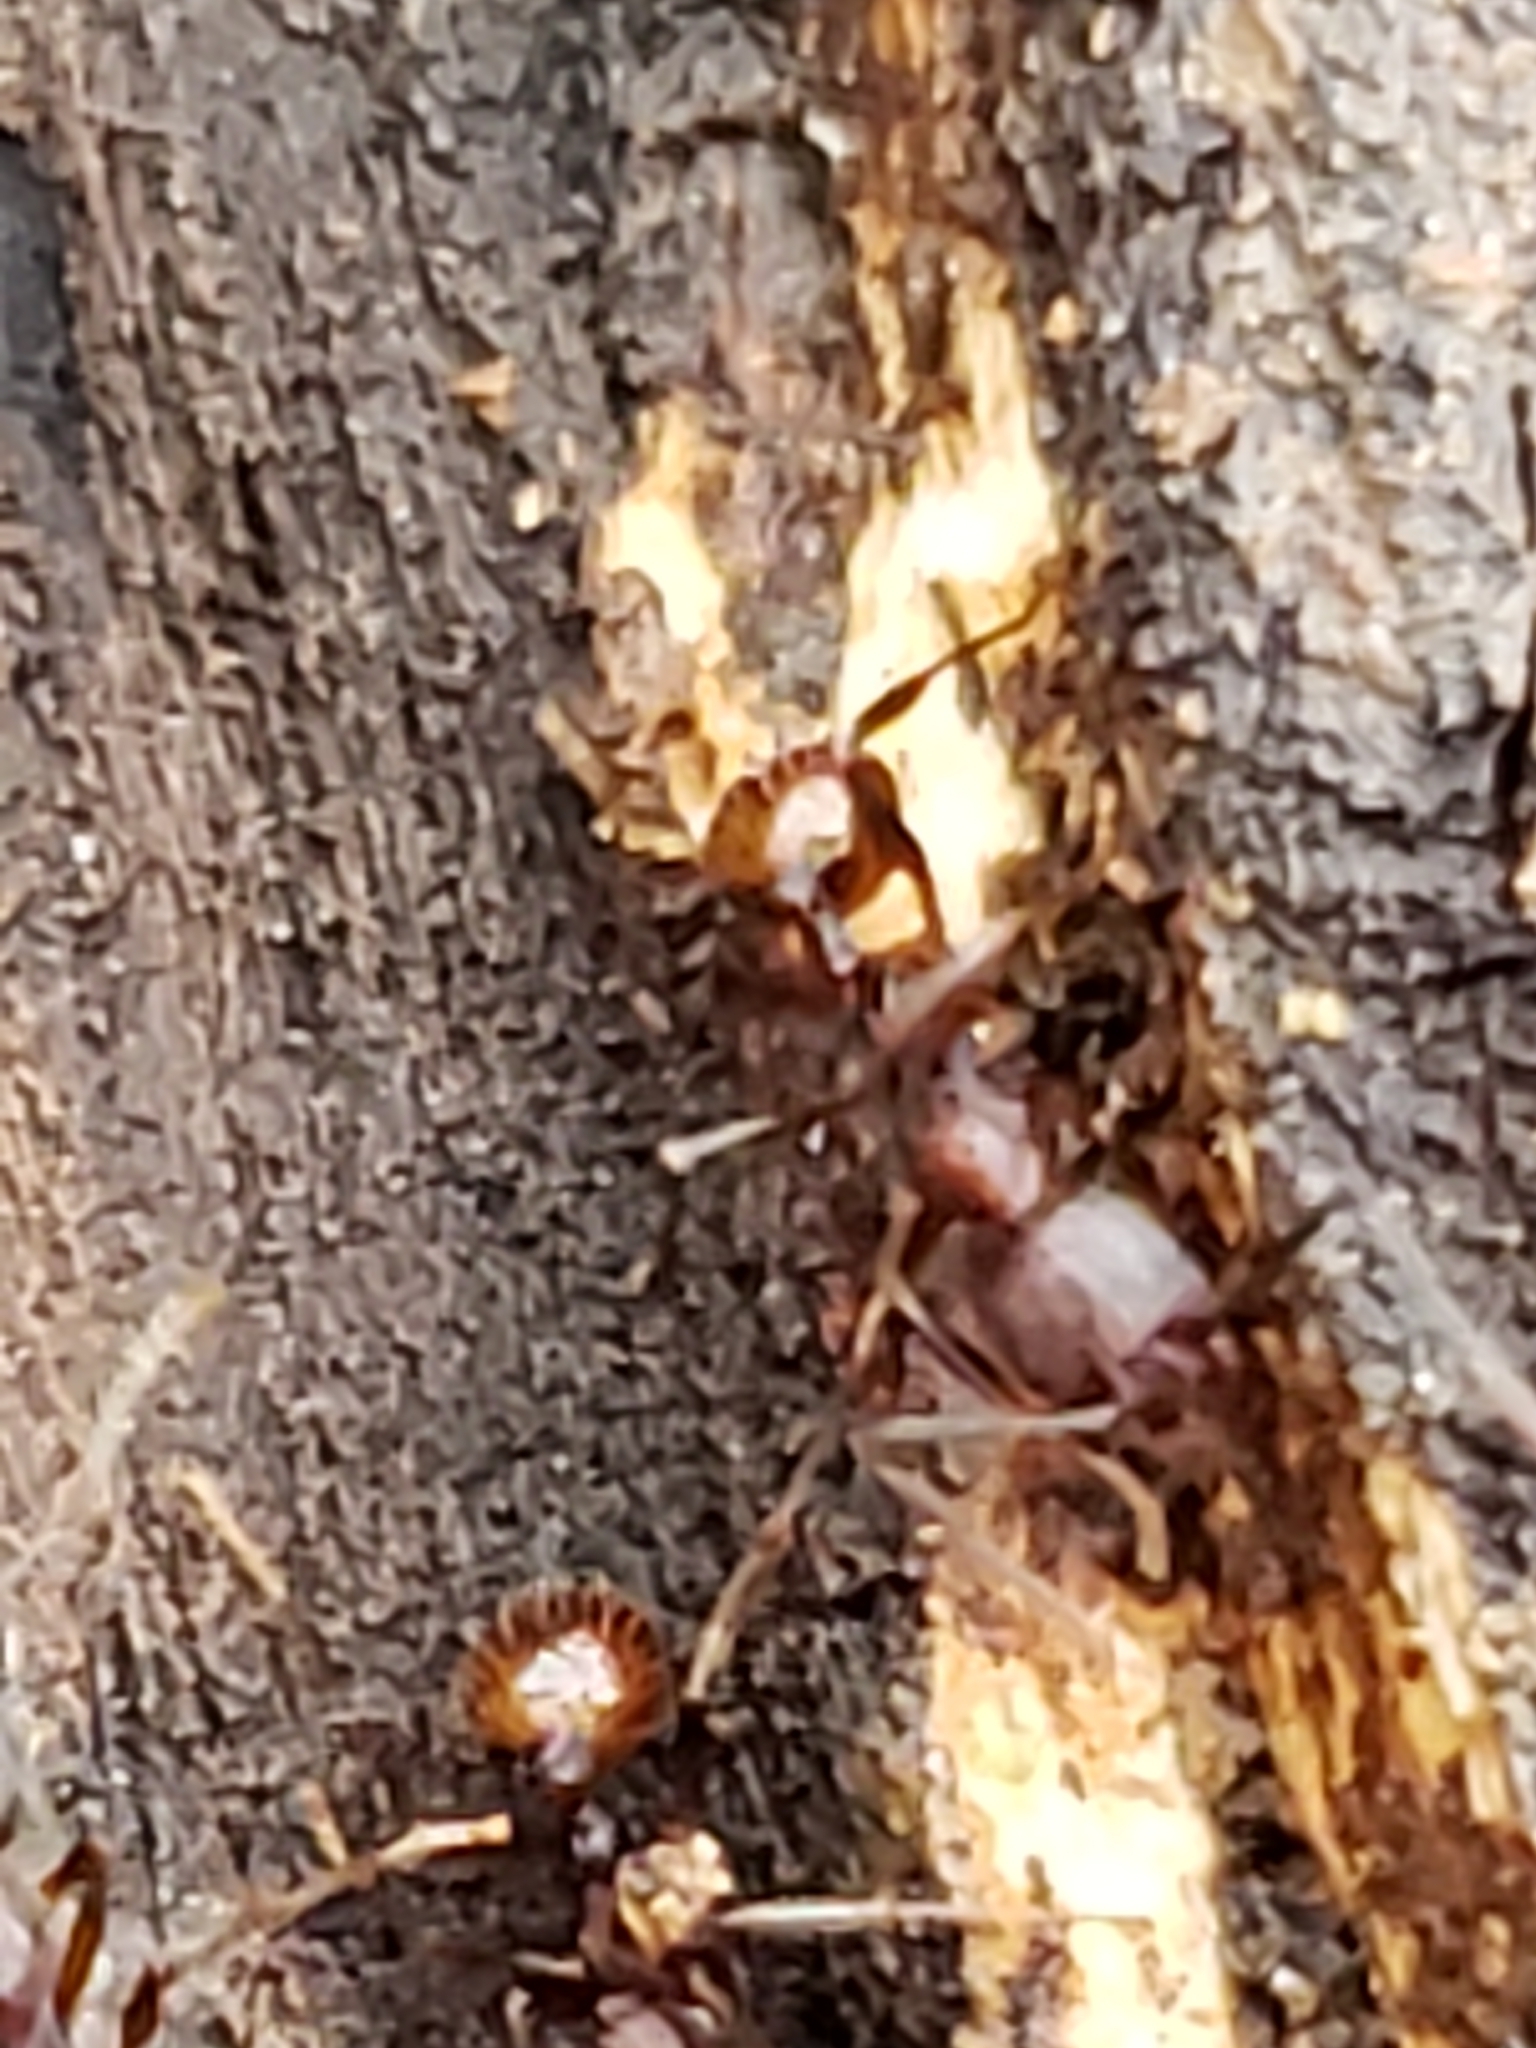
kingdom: Animalia
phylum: Arthropoda
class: Insecta
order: Hymenoptera
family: Formicidae
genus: Aphaenogaster
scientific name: Aphaenogaster fulva
